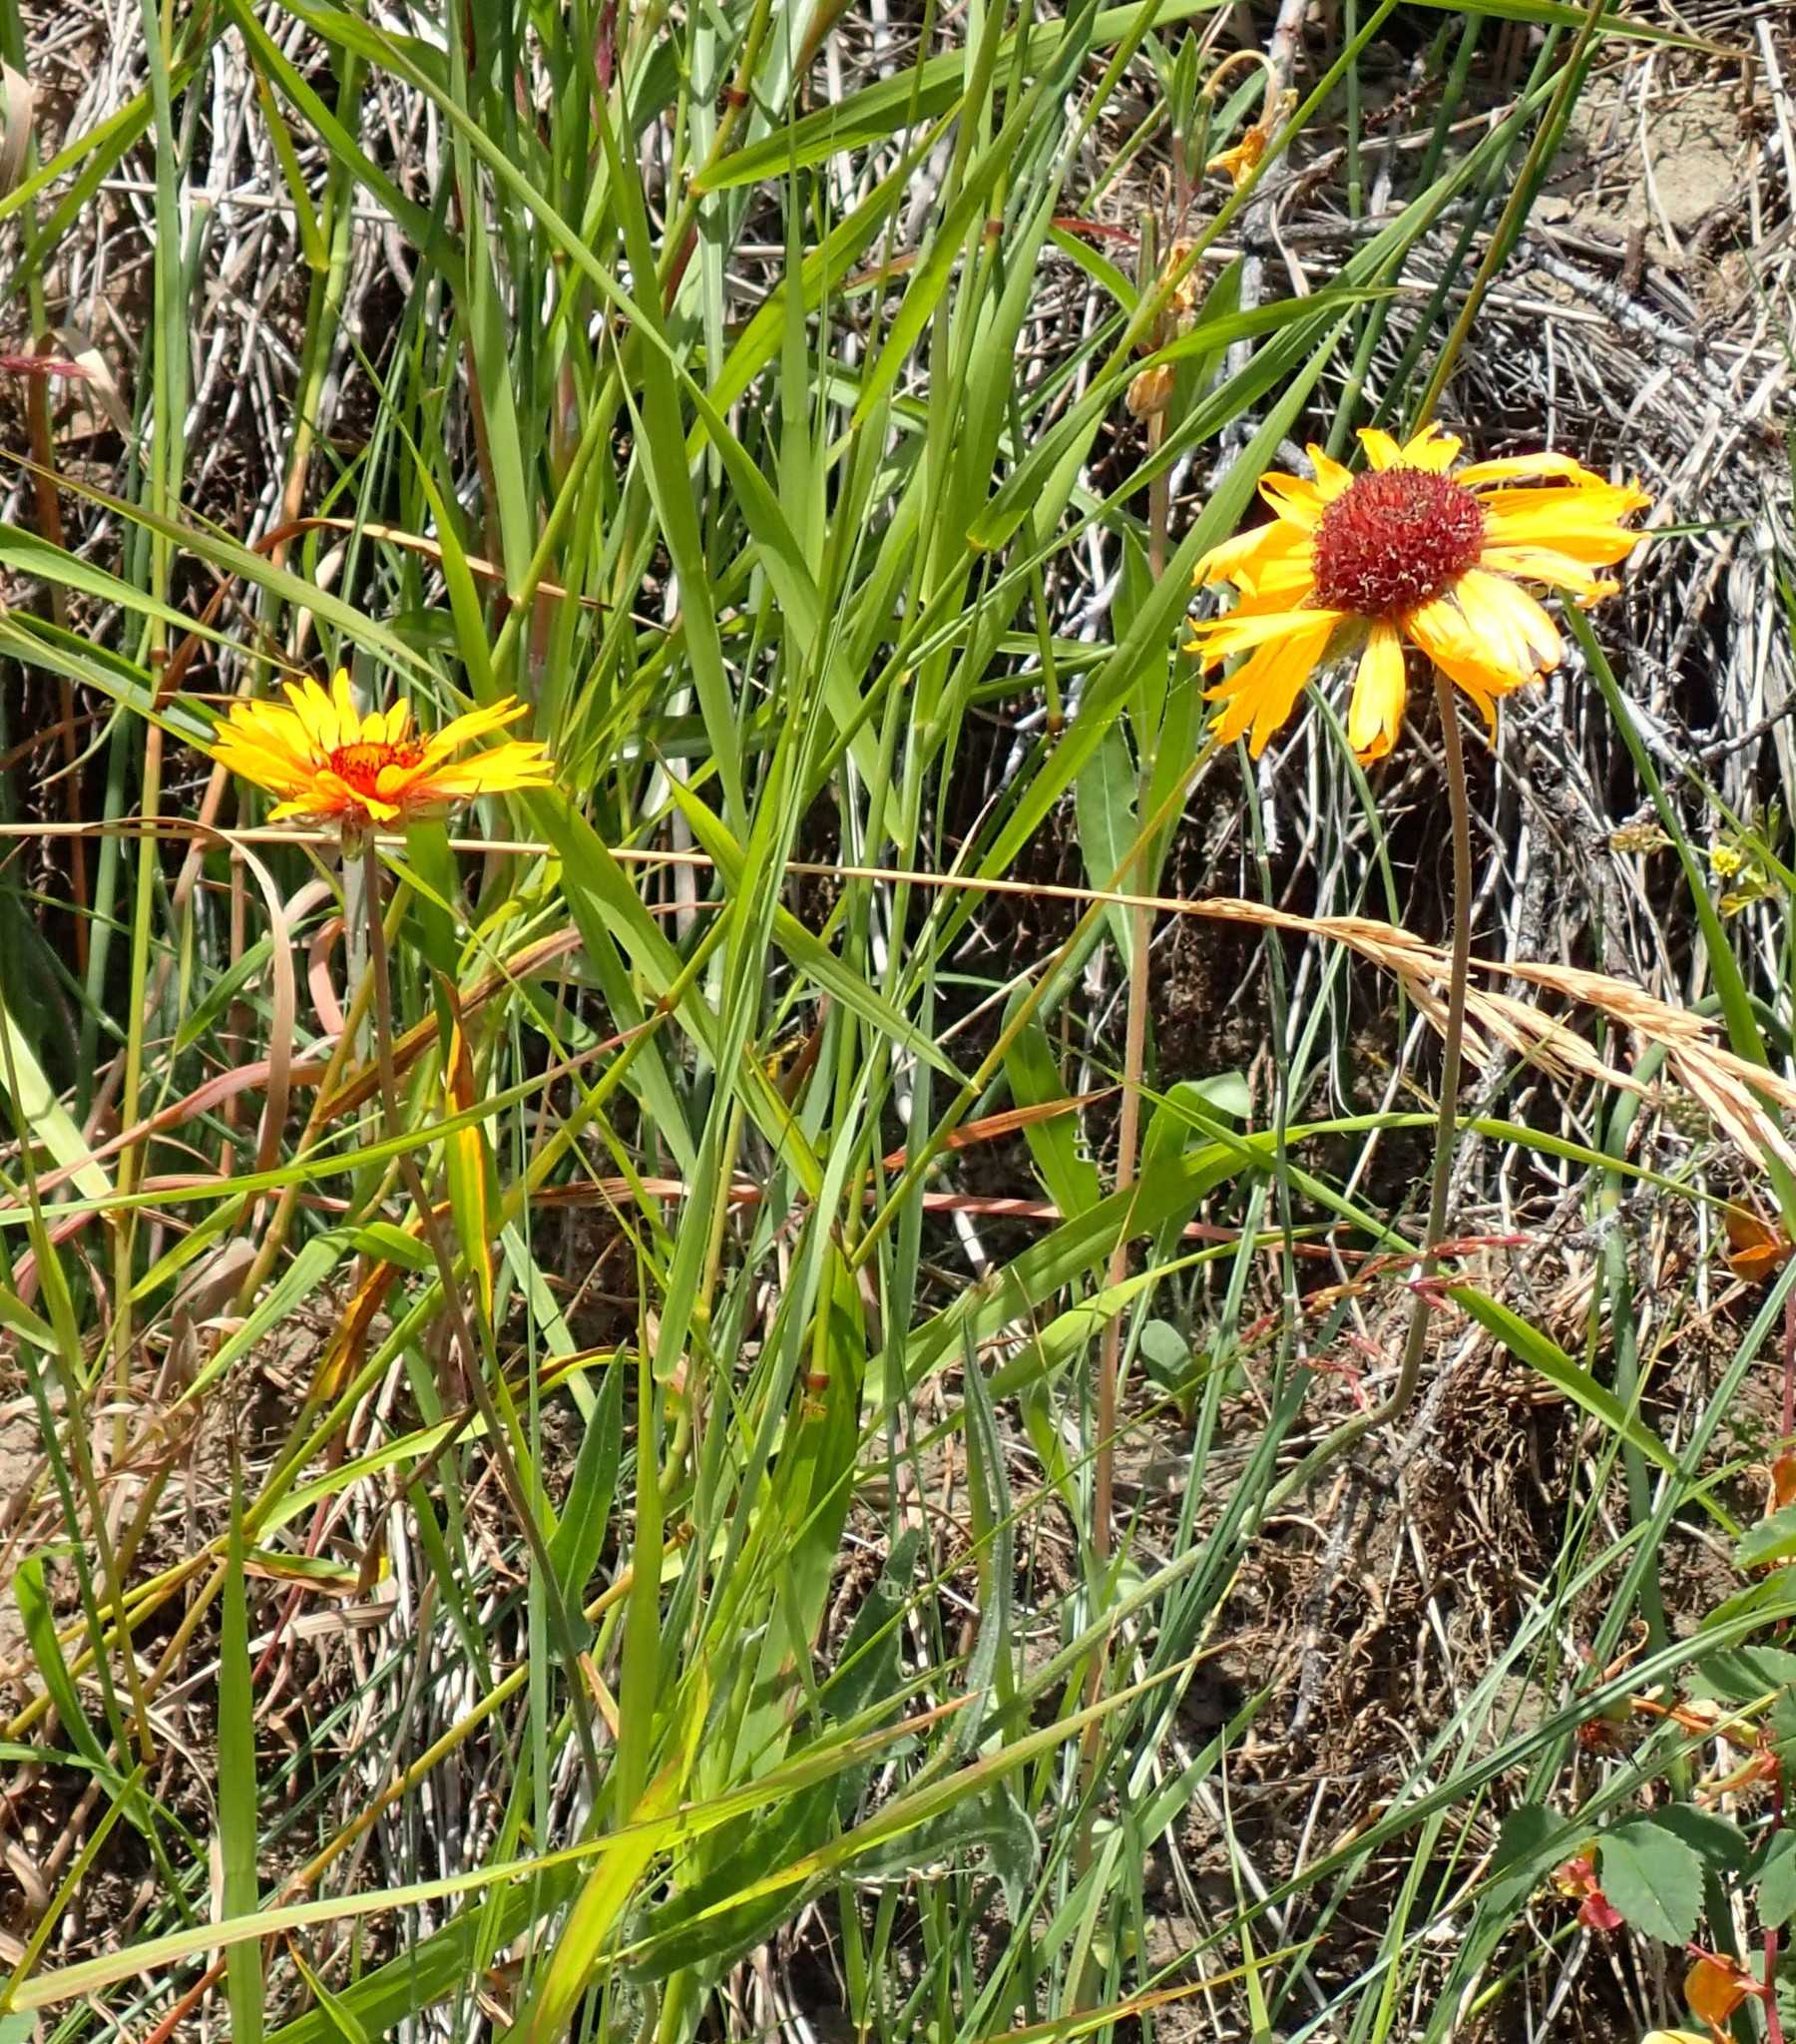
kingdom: Plantae
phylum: Tracheophyta
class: Magnoliopsida
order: Asterales
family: Asteraceae
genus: Gaillardia
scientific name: Gaillardia aristata
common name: Blanket-flower
